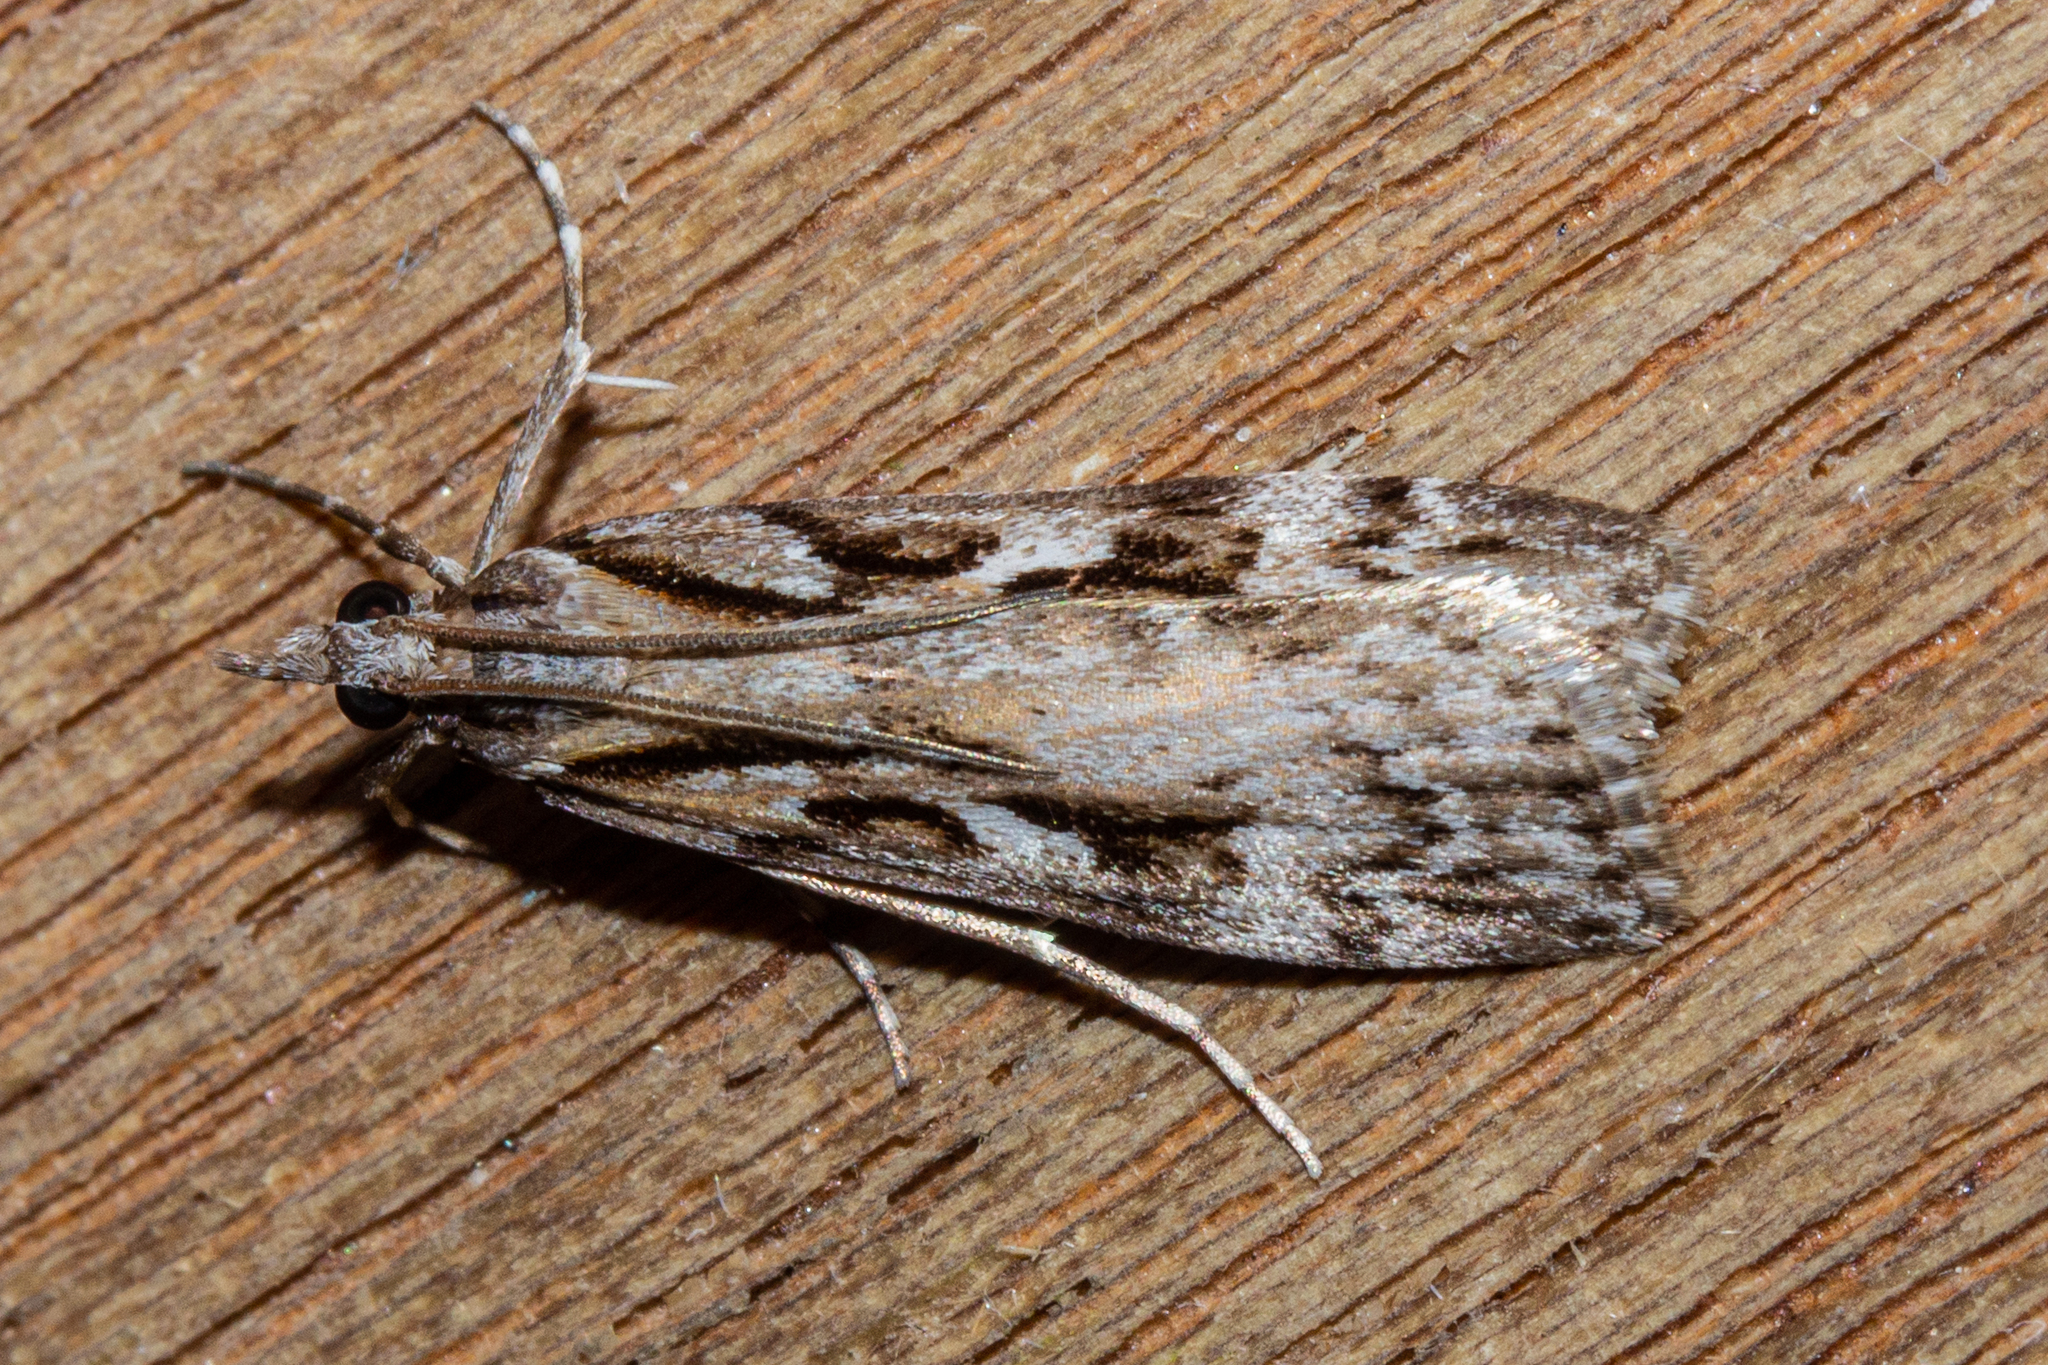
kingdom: Animalia
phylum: Arthropoda
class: Insecta
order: Lepidoptera
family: Crambidae
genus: Scoparia
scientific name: Scoparia cyameuta
